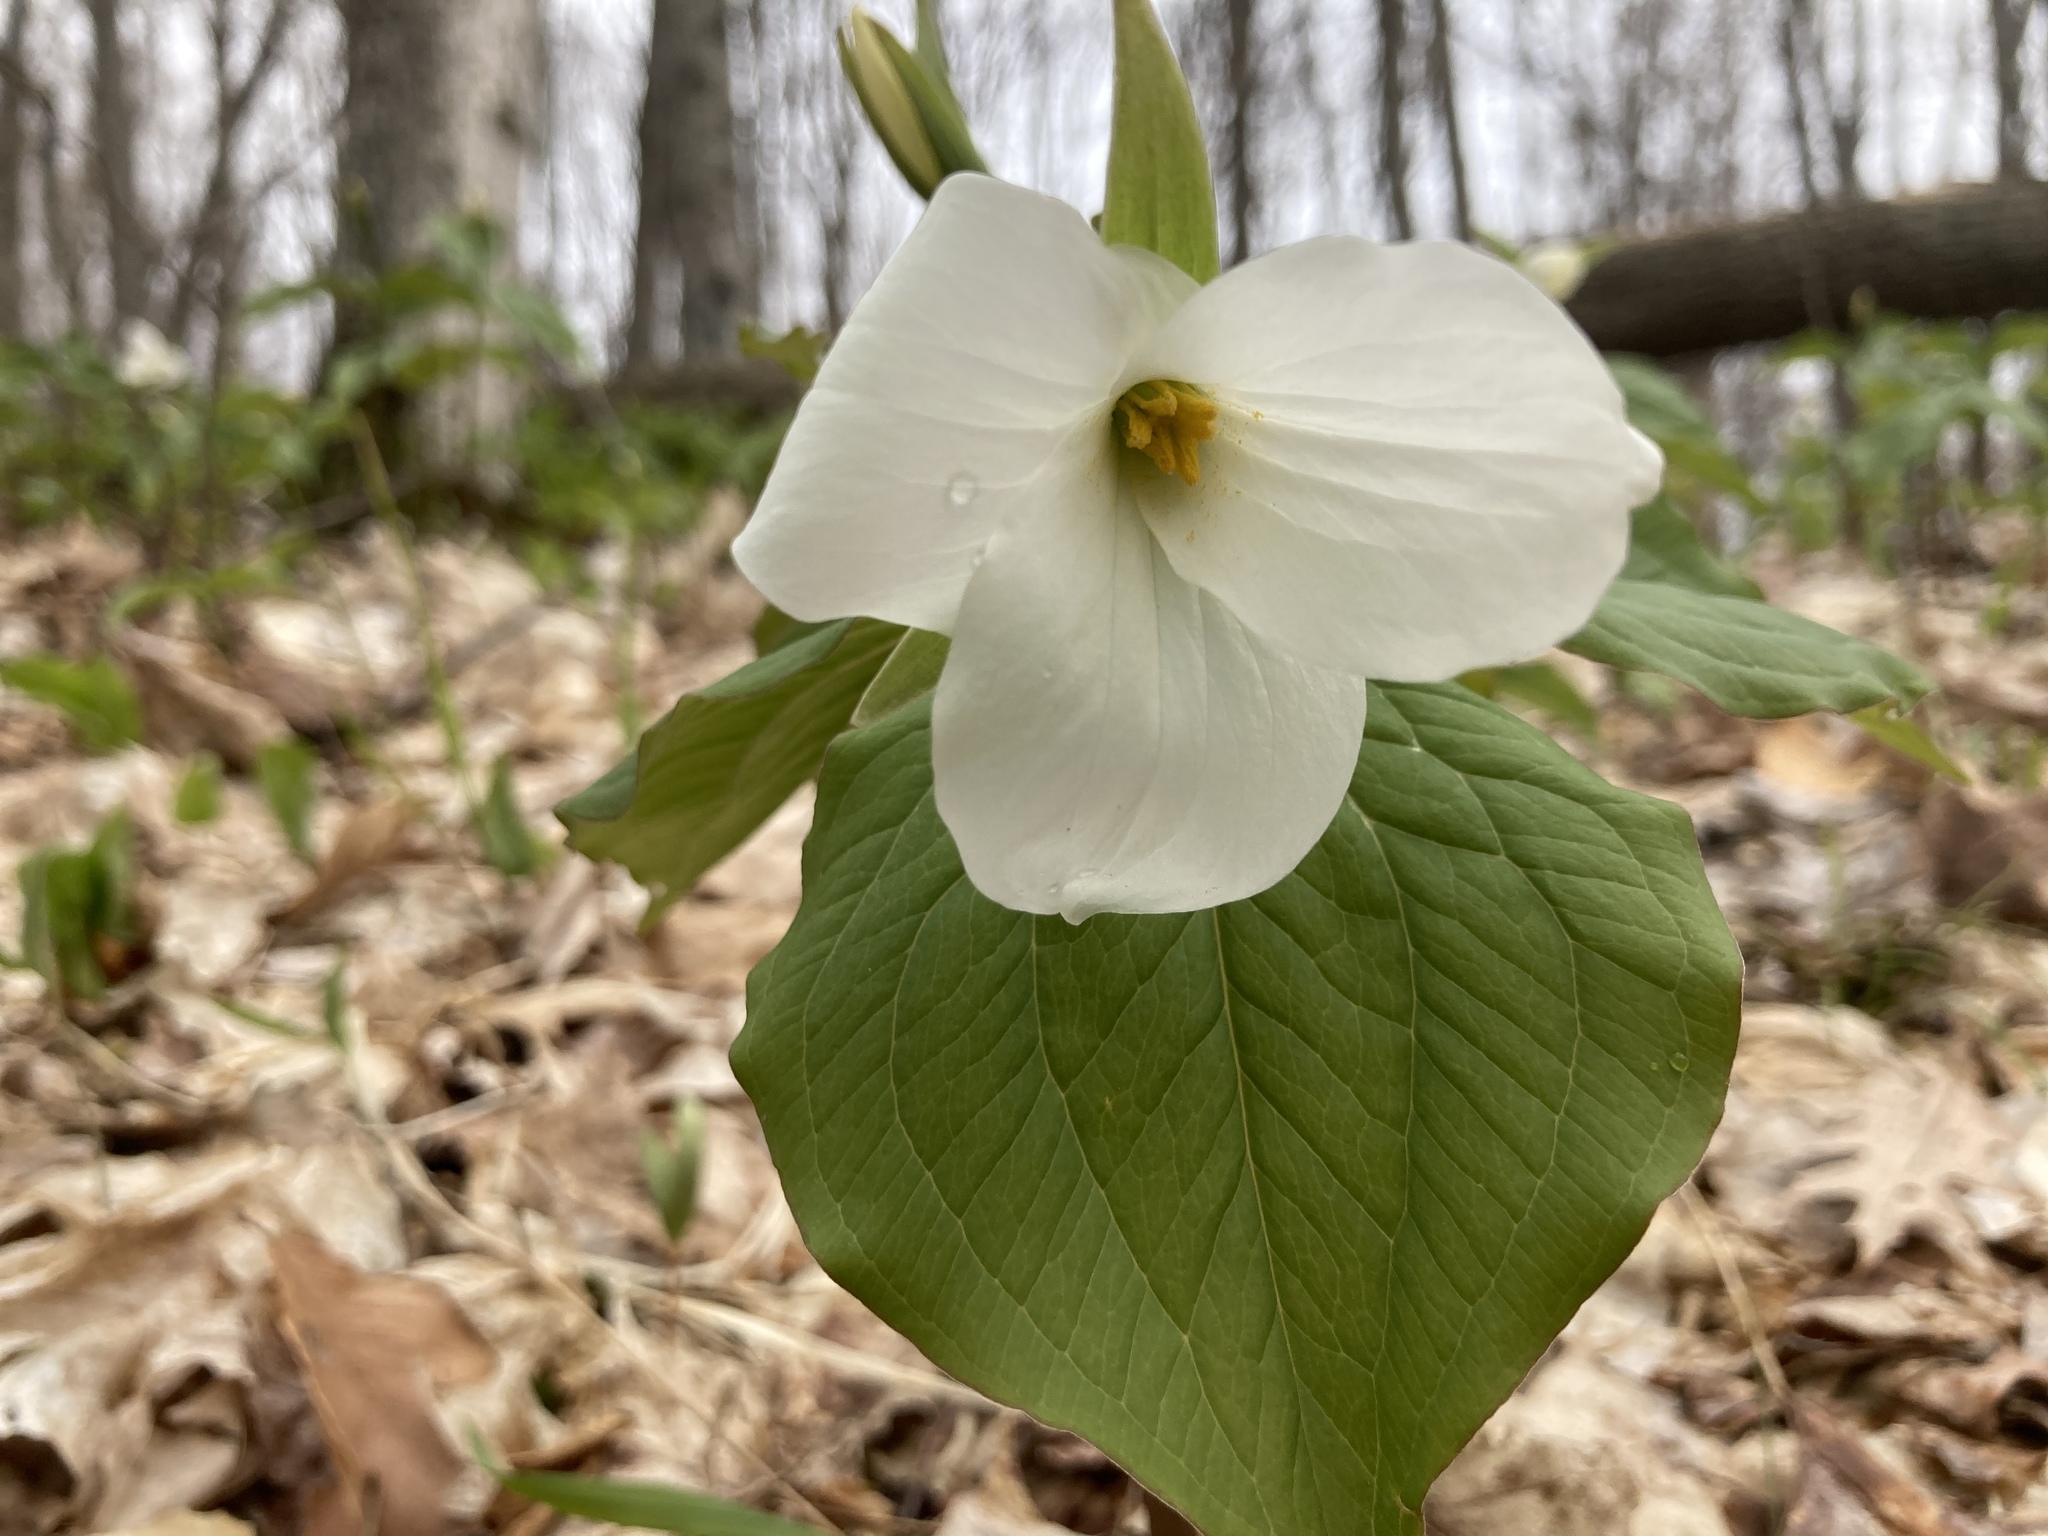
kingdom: Plantae
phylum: Tracheophyta
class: Liliopsida
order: Liliales
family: Melanthiaceae
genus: Trillium
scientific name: Trillium grandiflorum
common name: Great white trillium
